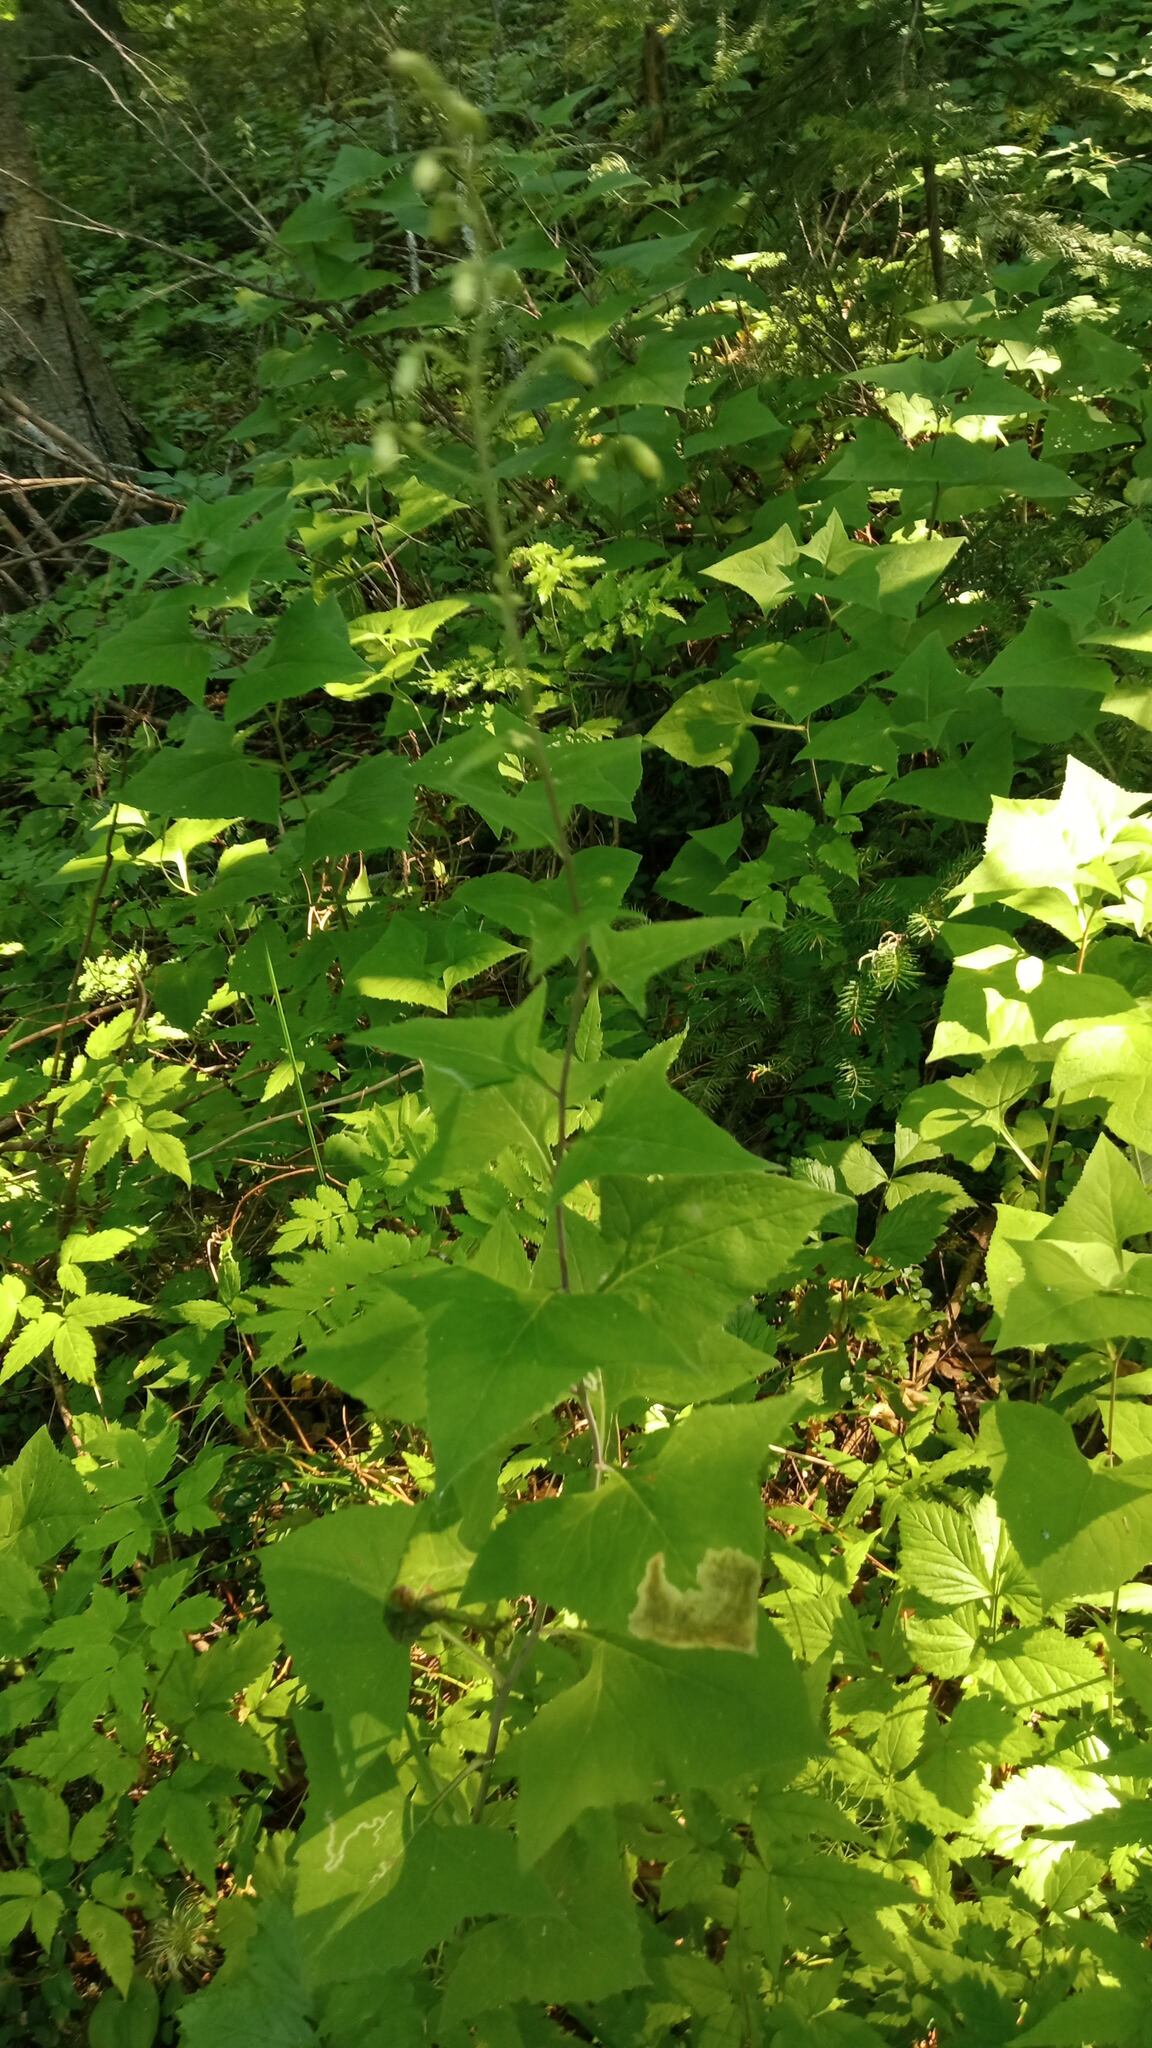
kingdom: Plantae
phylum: Tracheophyta
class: Magnoliopsida
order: Asterales
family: Asteraceae
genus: Parasenecio
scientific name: Parasenecio hastatus
